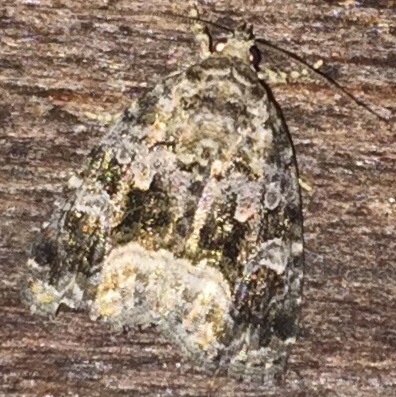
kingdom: Animalia
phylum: Arthropoda
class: Insecta
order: Lepidoptera
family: Noctuidae
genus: Protodeltote
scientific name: Protodeltote muscosula
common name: Large mossy glyph
